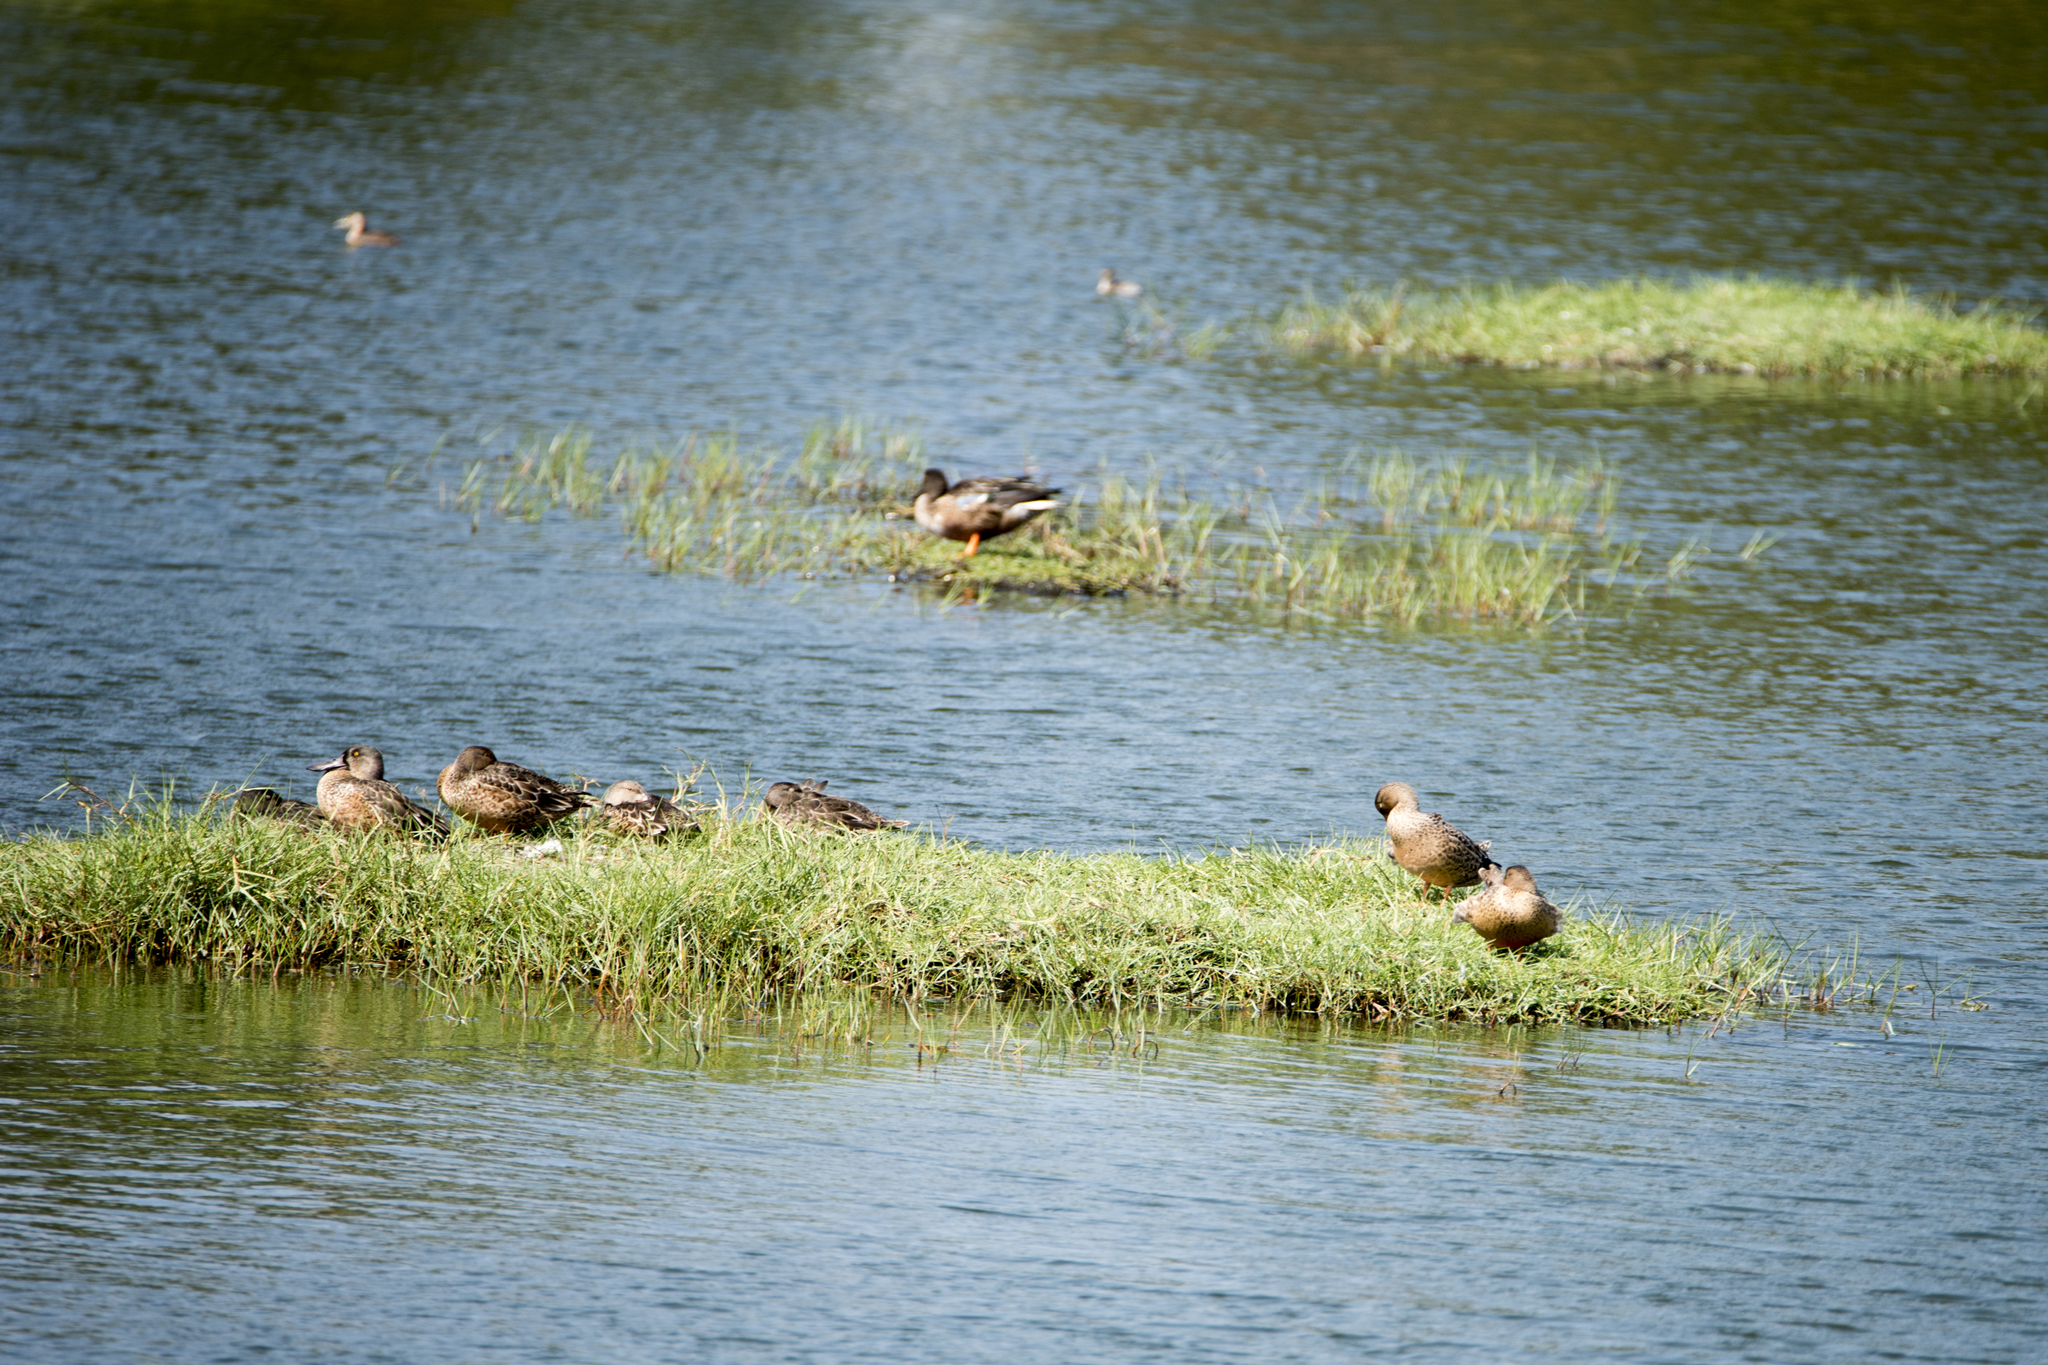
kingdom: Animalia
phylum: Chordata
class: Aves
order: Anseriformes
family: Anatidae
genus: Spatula
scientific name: Spatula clypeata
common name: Northern shoveler
